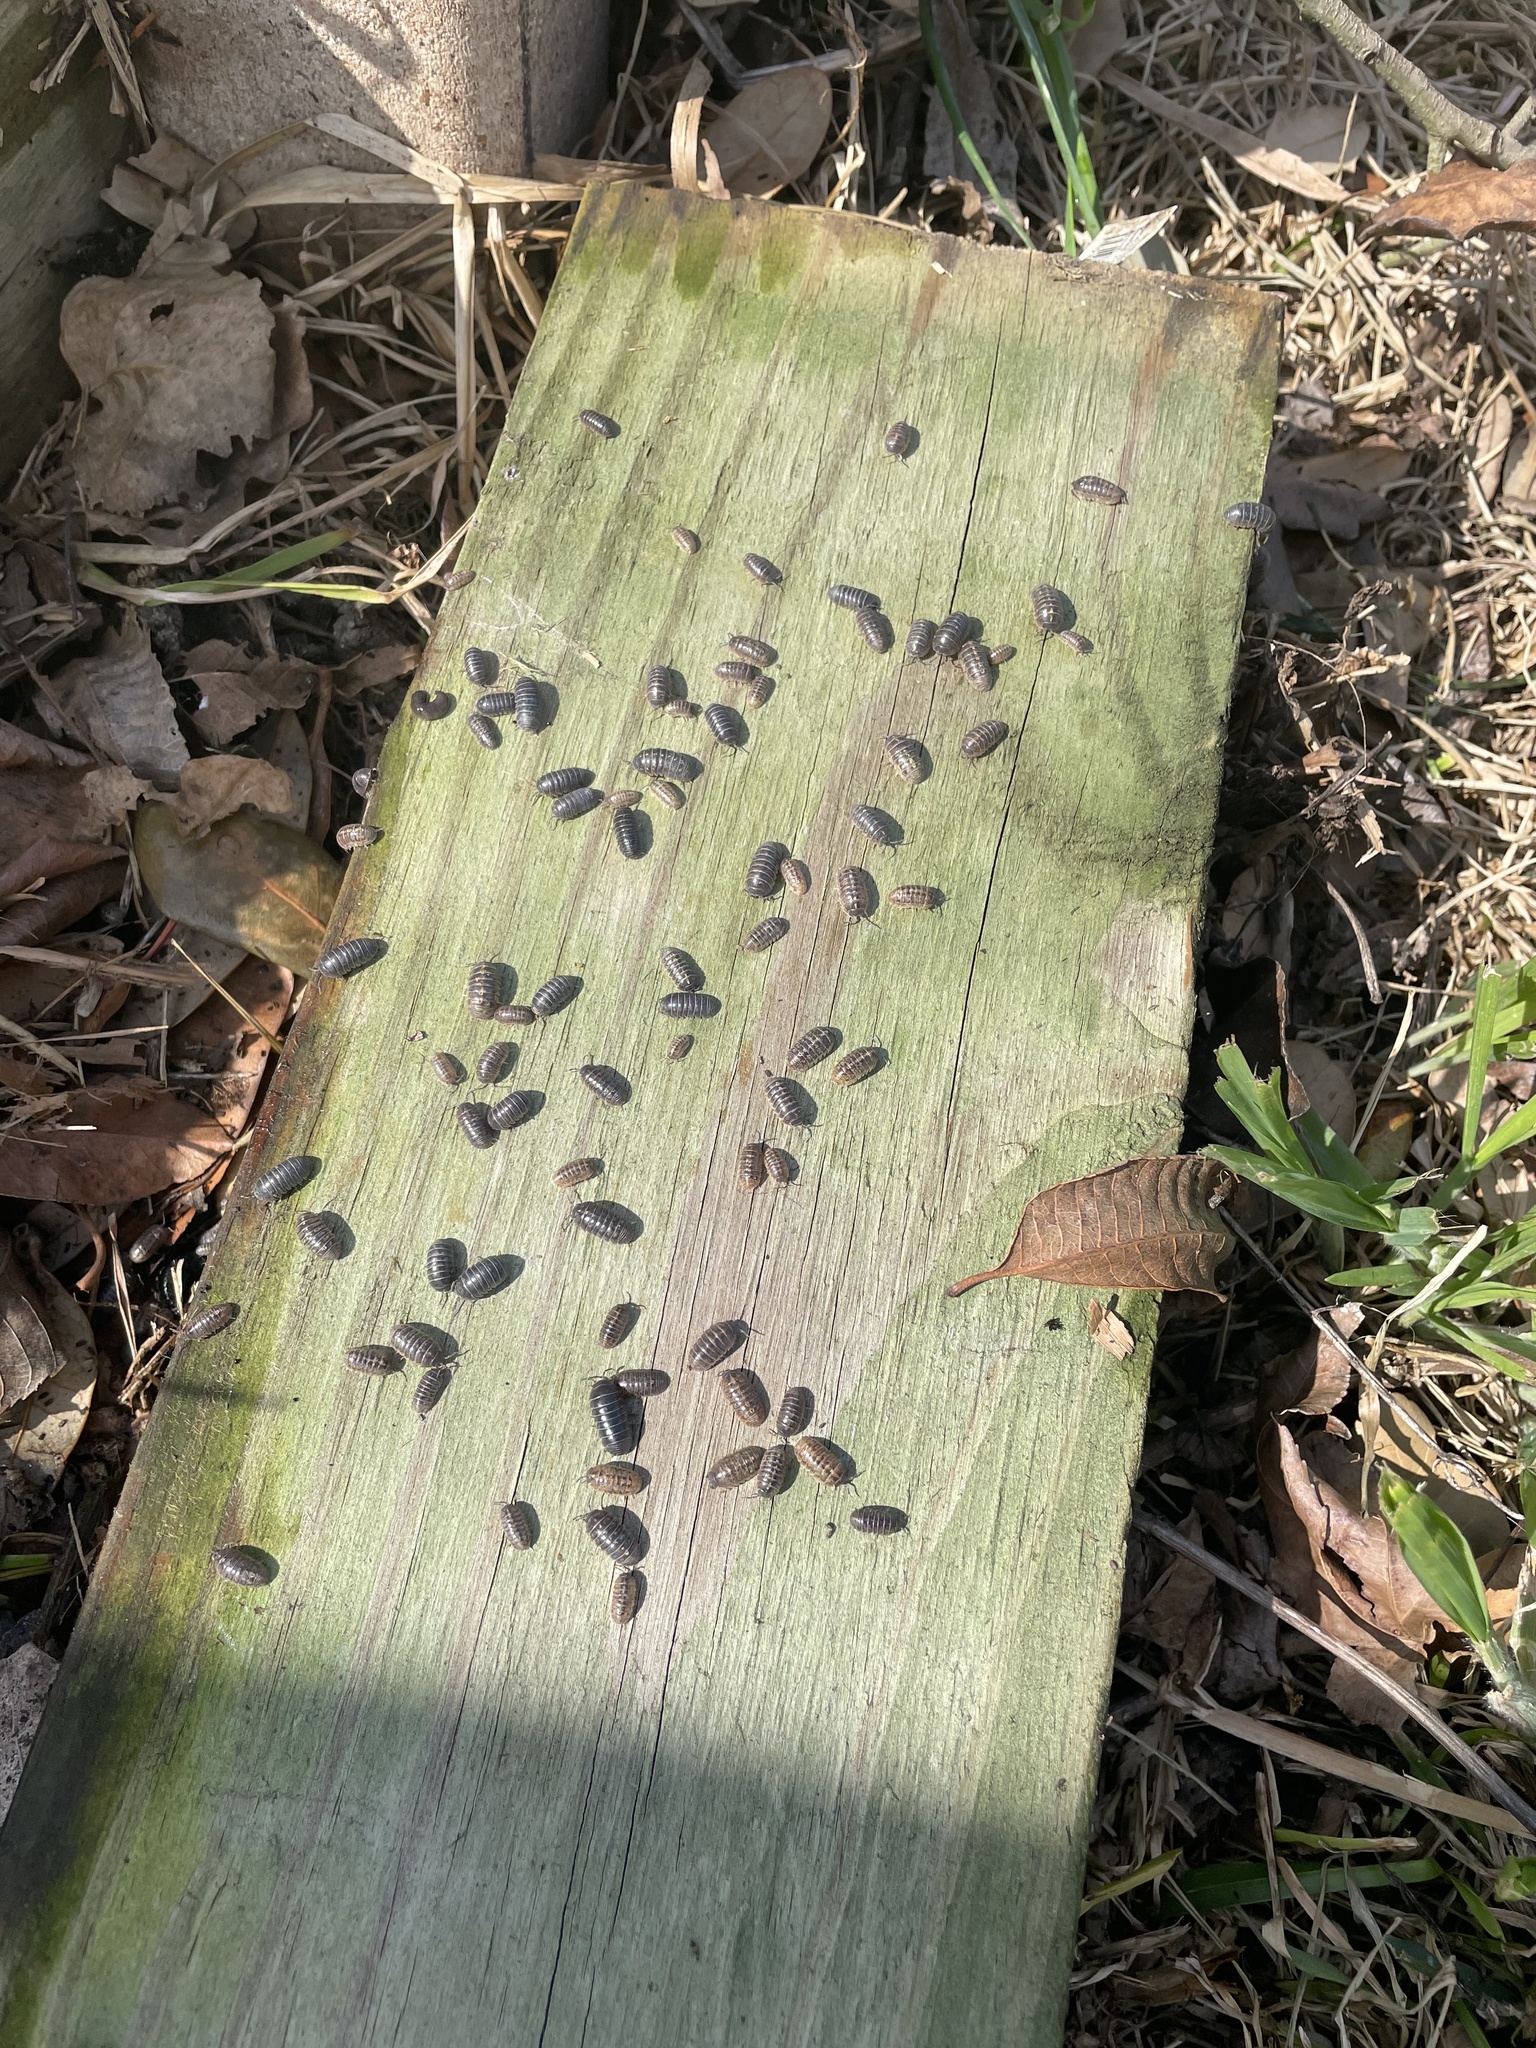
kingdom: Animalia
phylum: Arthropoda
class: Malacostraca
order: Isopoda
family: Armadillidiidae
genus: Armadillidium
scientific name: Armadillidium vulgare
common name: Common pill woodlouse
